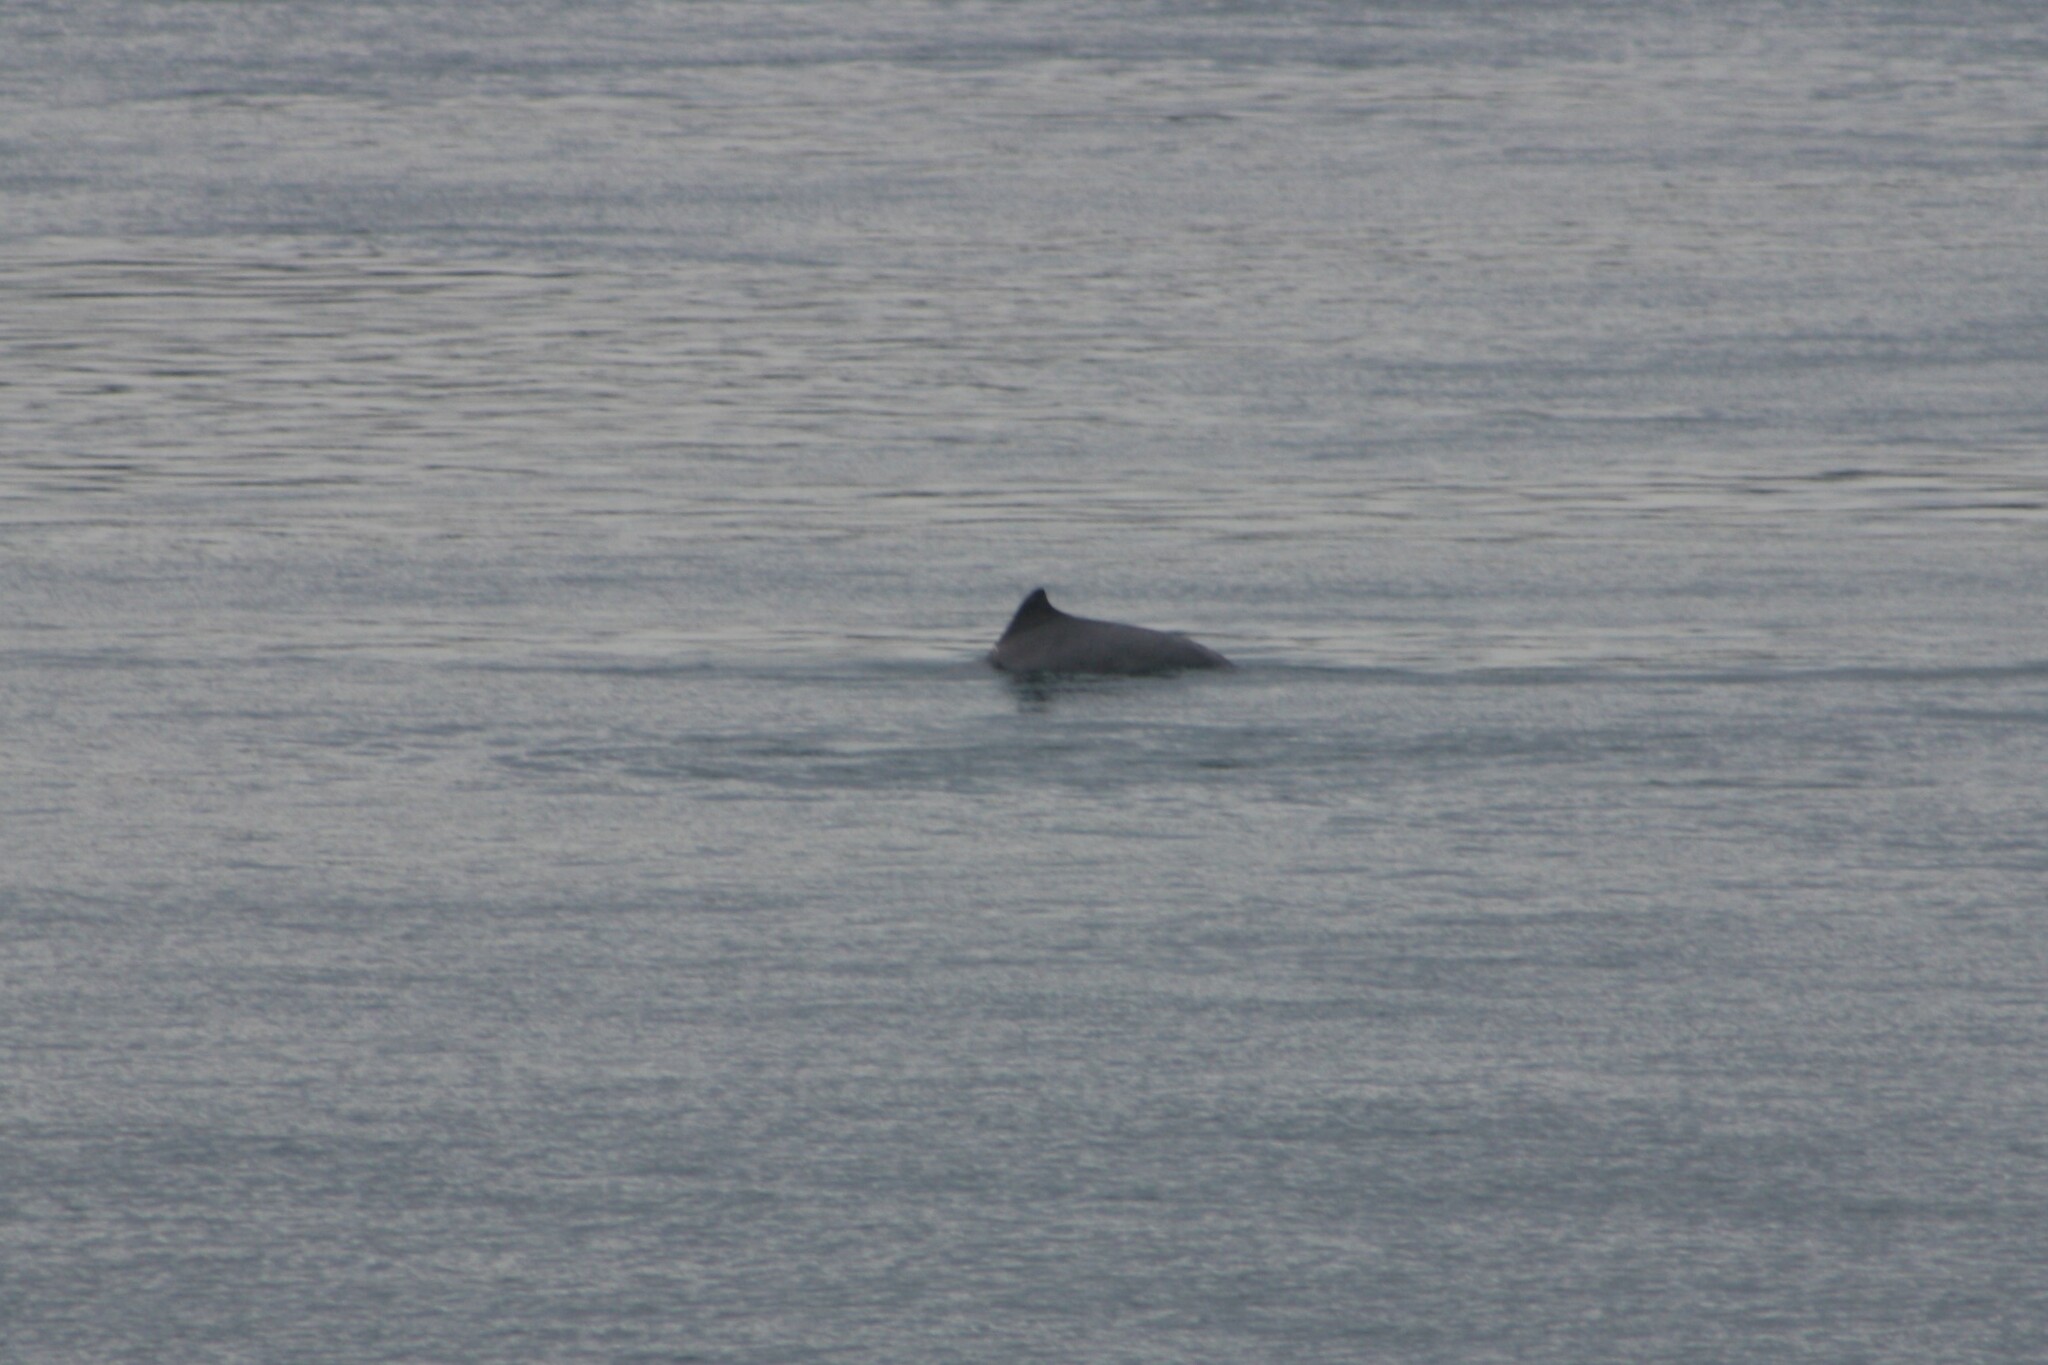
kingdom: Animalia
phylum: Chordata
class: Mammalia
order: Cetacea
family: Delphinidae
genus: Sousa
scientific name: Sousa sahulensis
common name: Australian humpback dolphin
